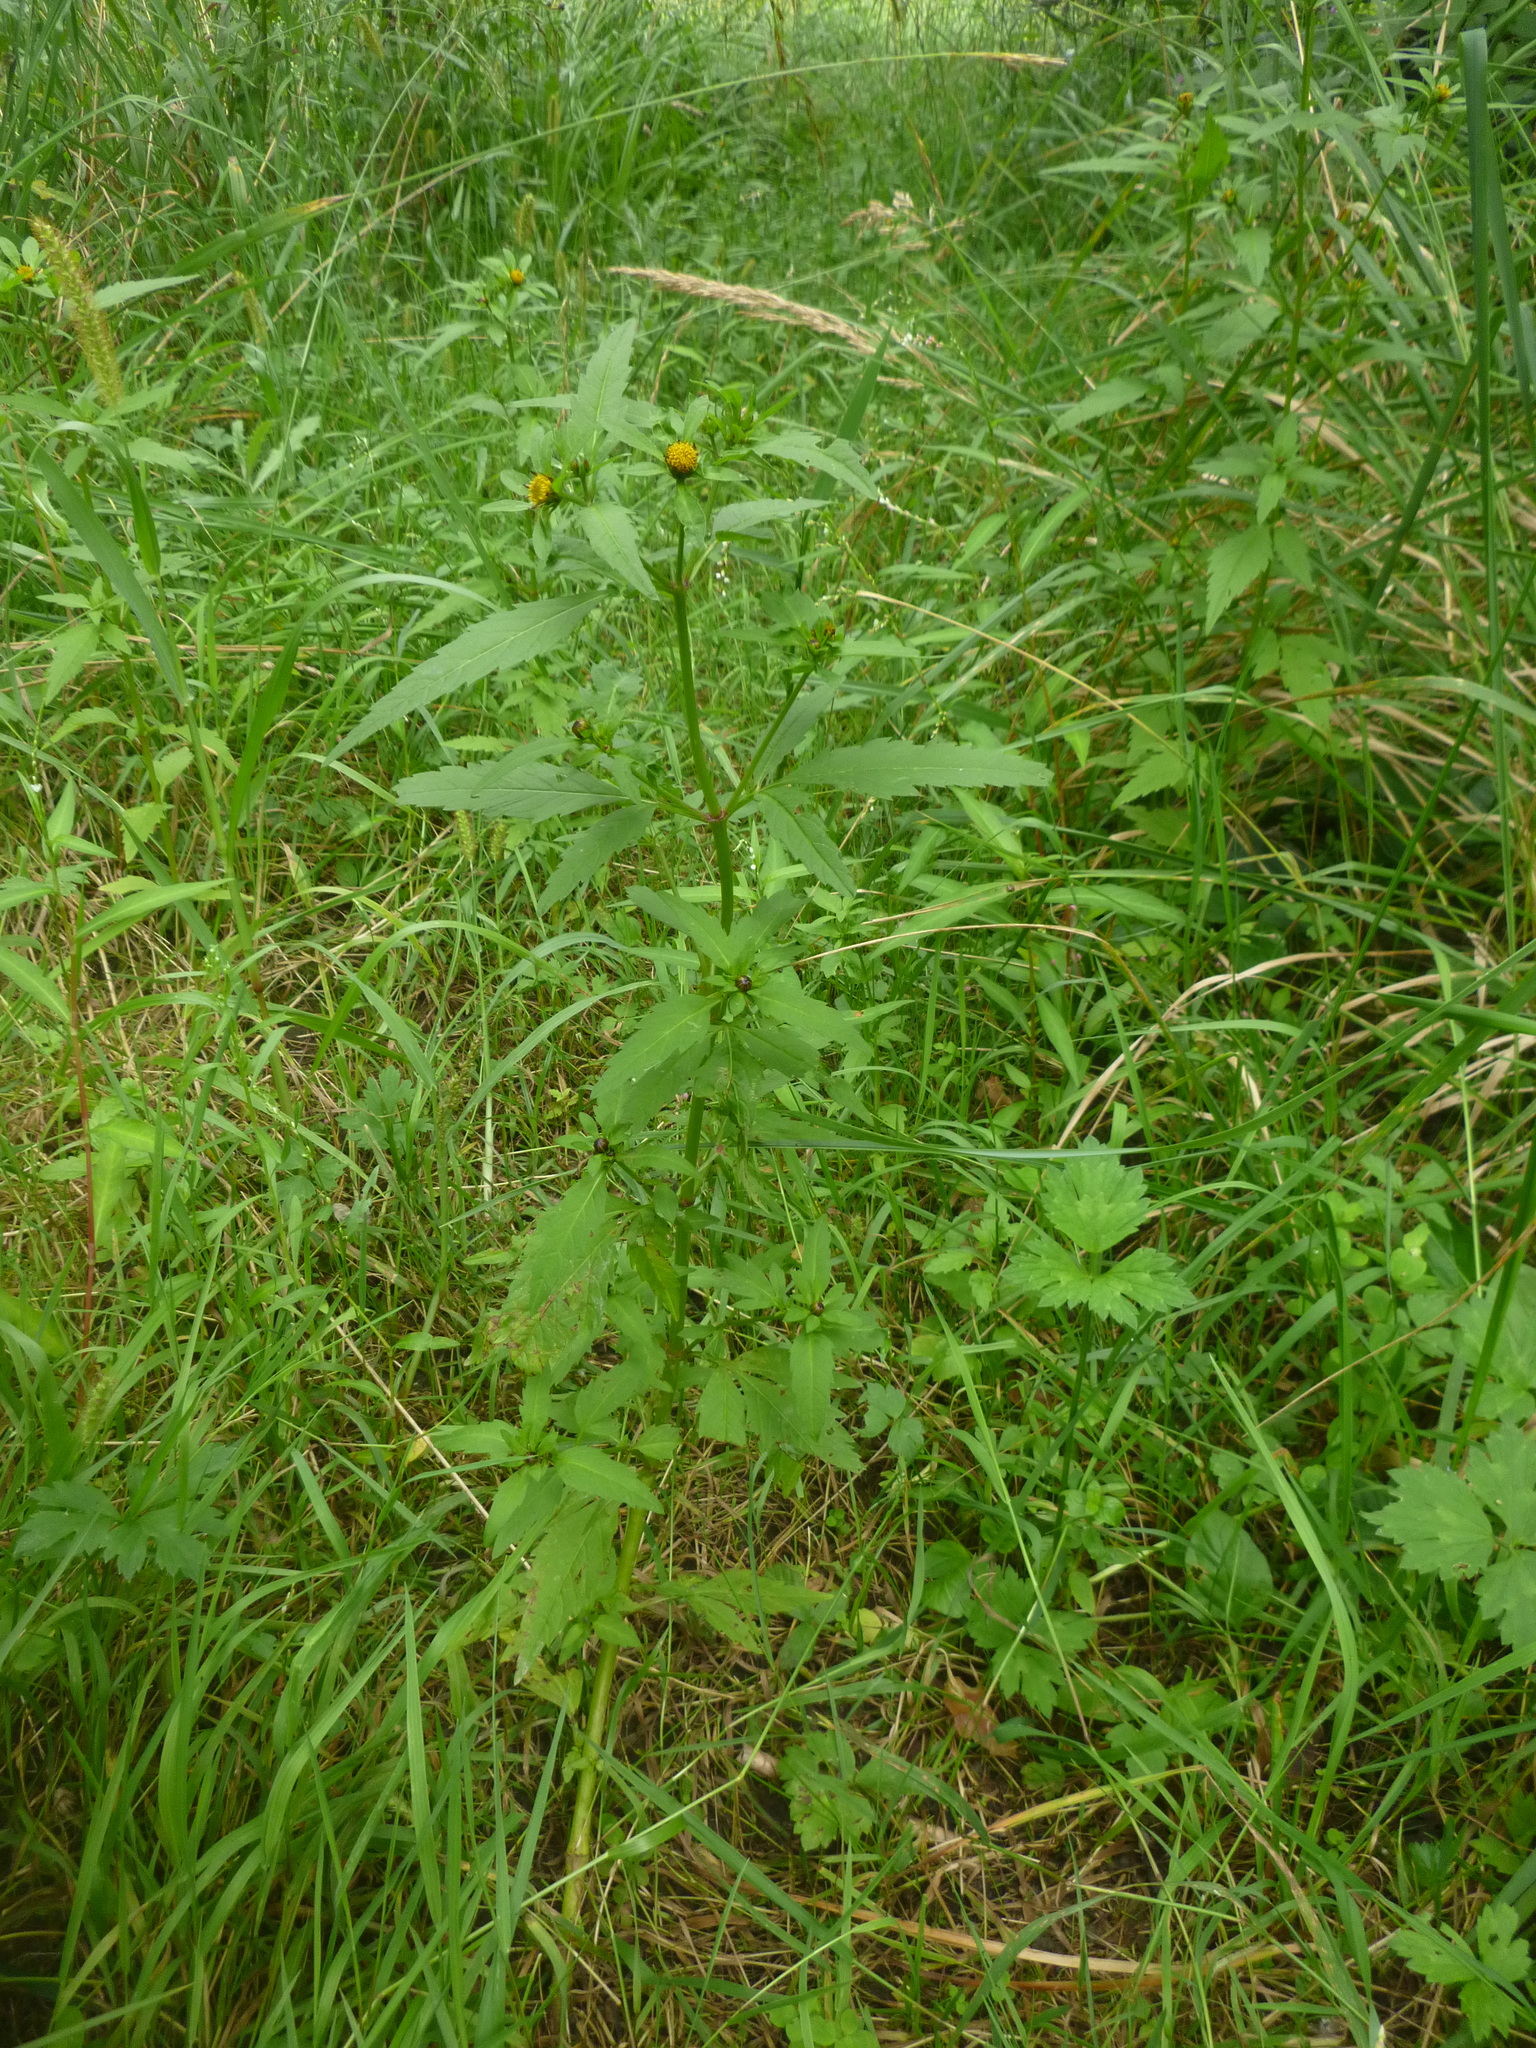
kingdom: Plantae
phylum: Tracheophyta
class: Magnoliopsida
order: Asterales
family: Asteraceae
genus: Bidens
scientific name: Bidens tripartita
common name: Trifid bur-marigold
